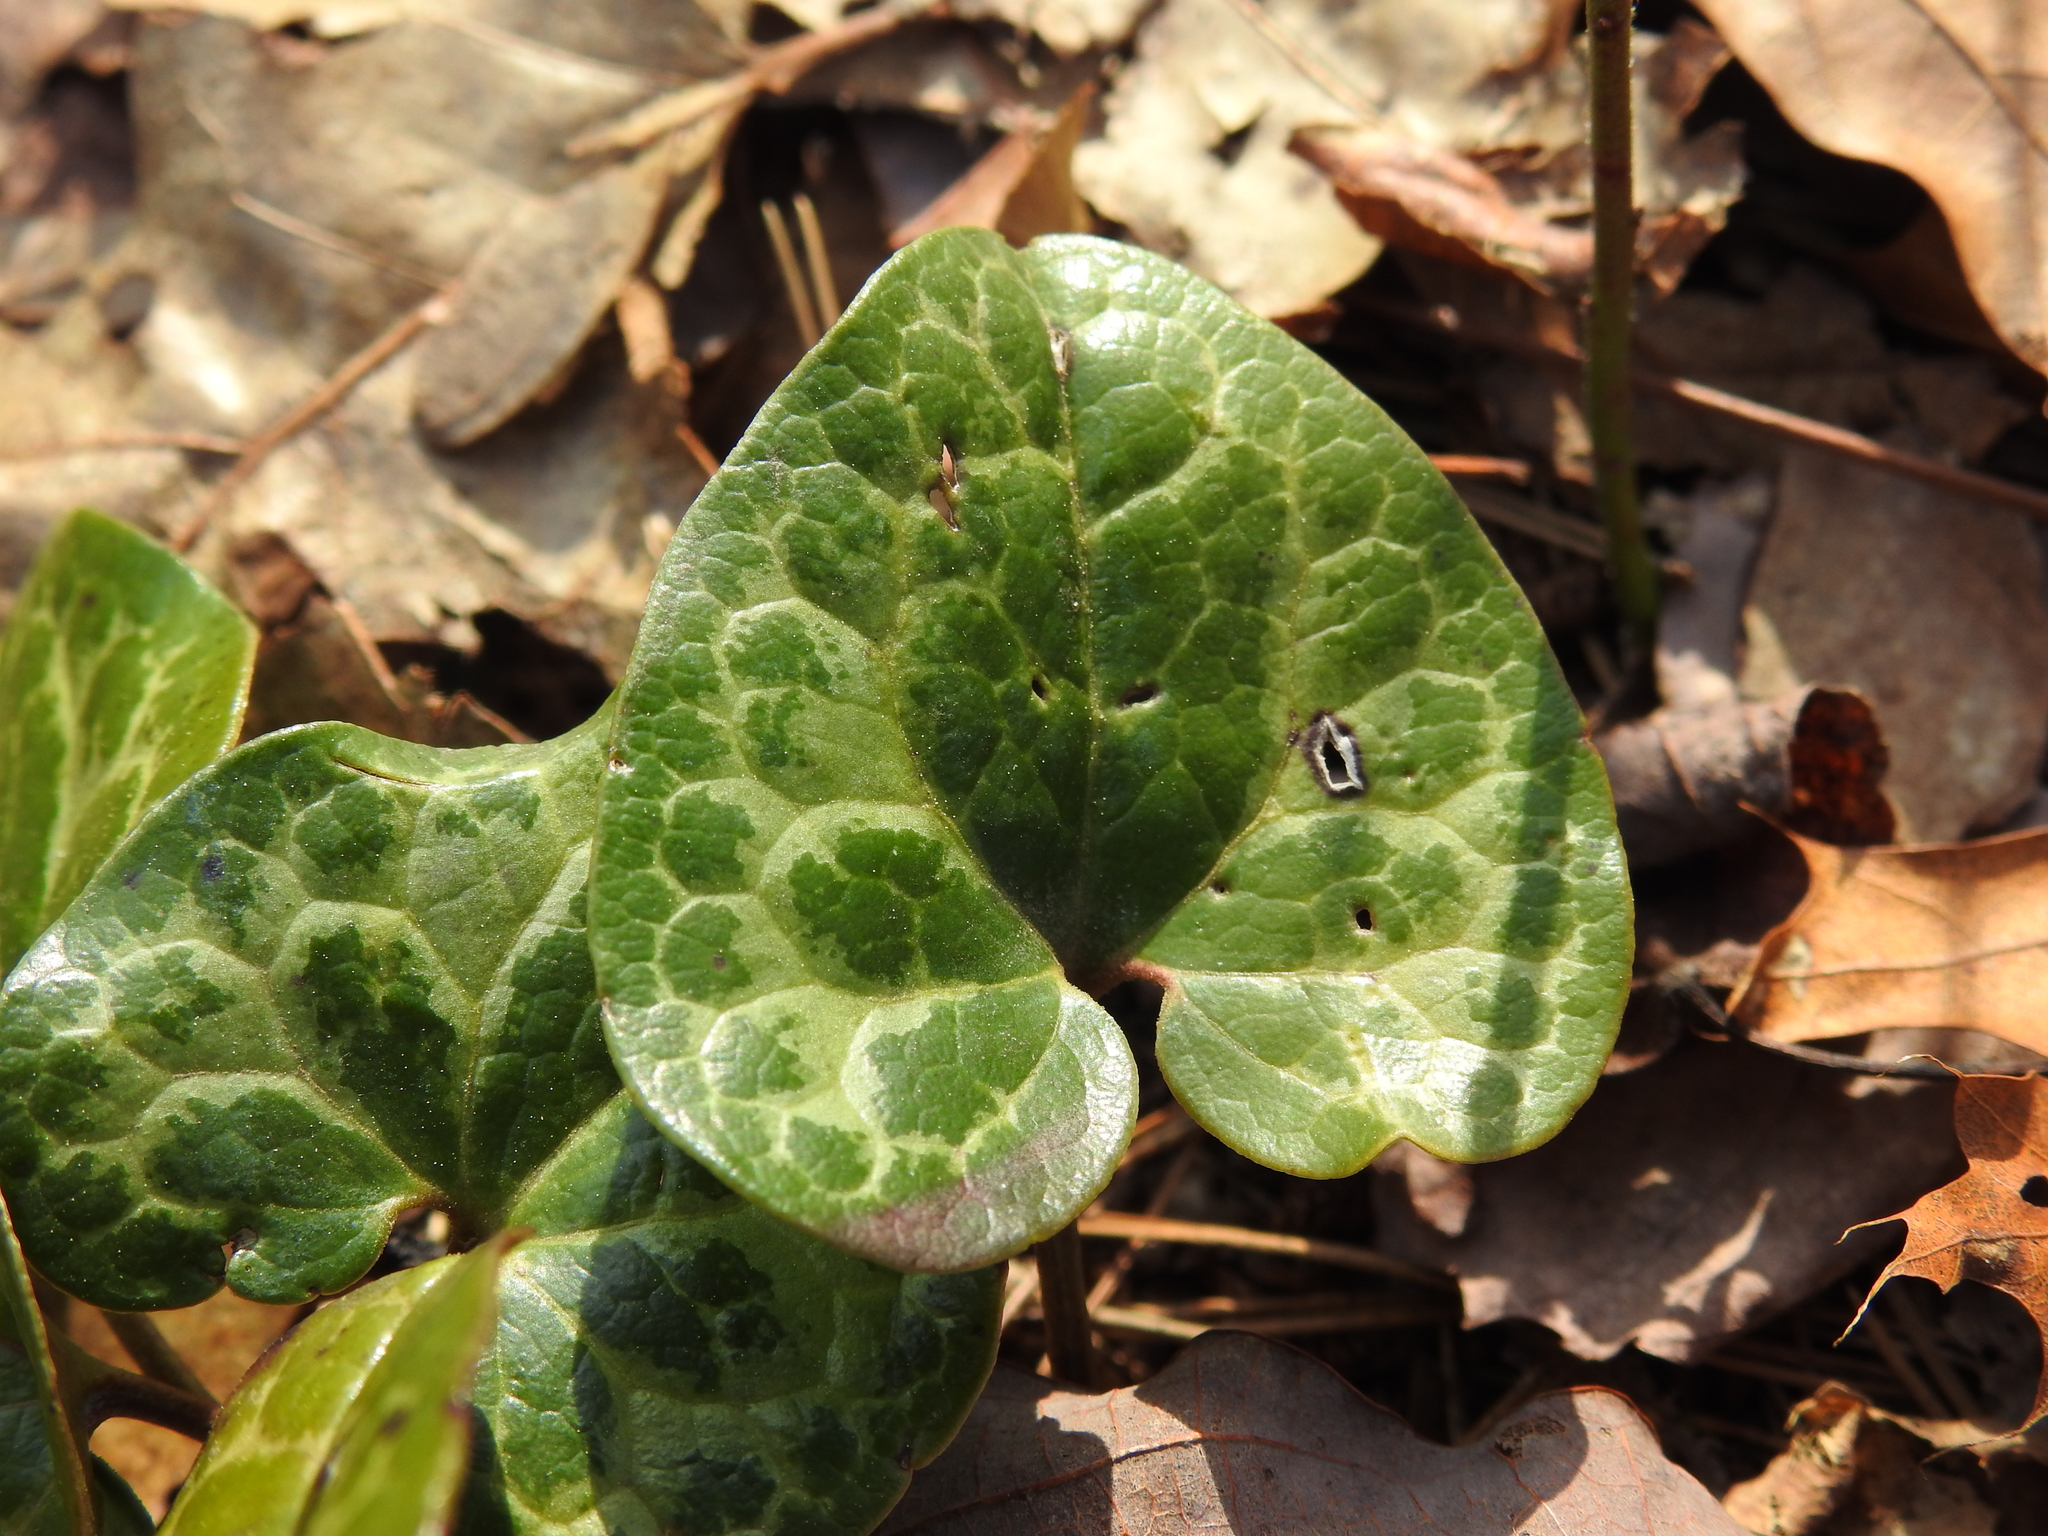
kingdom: Plantae
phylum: Tracheophyta
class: Magnoliopsida
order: Piperales
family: Aristolochiaceae
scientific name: Aristolochiaceae
